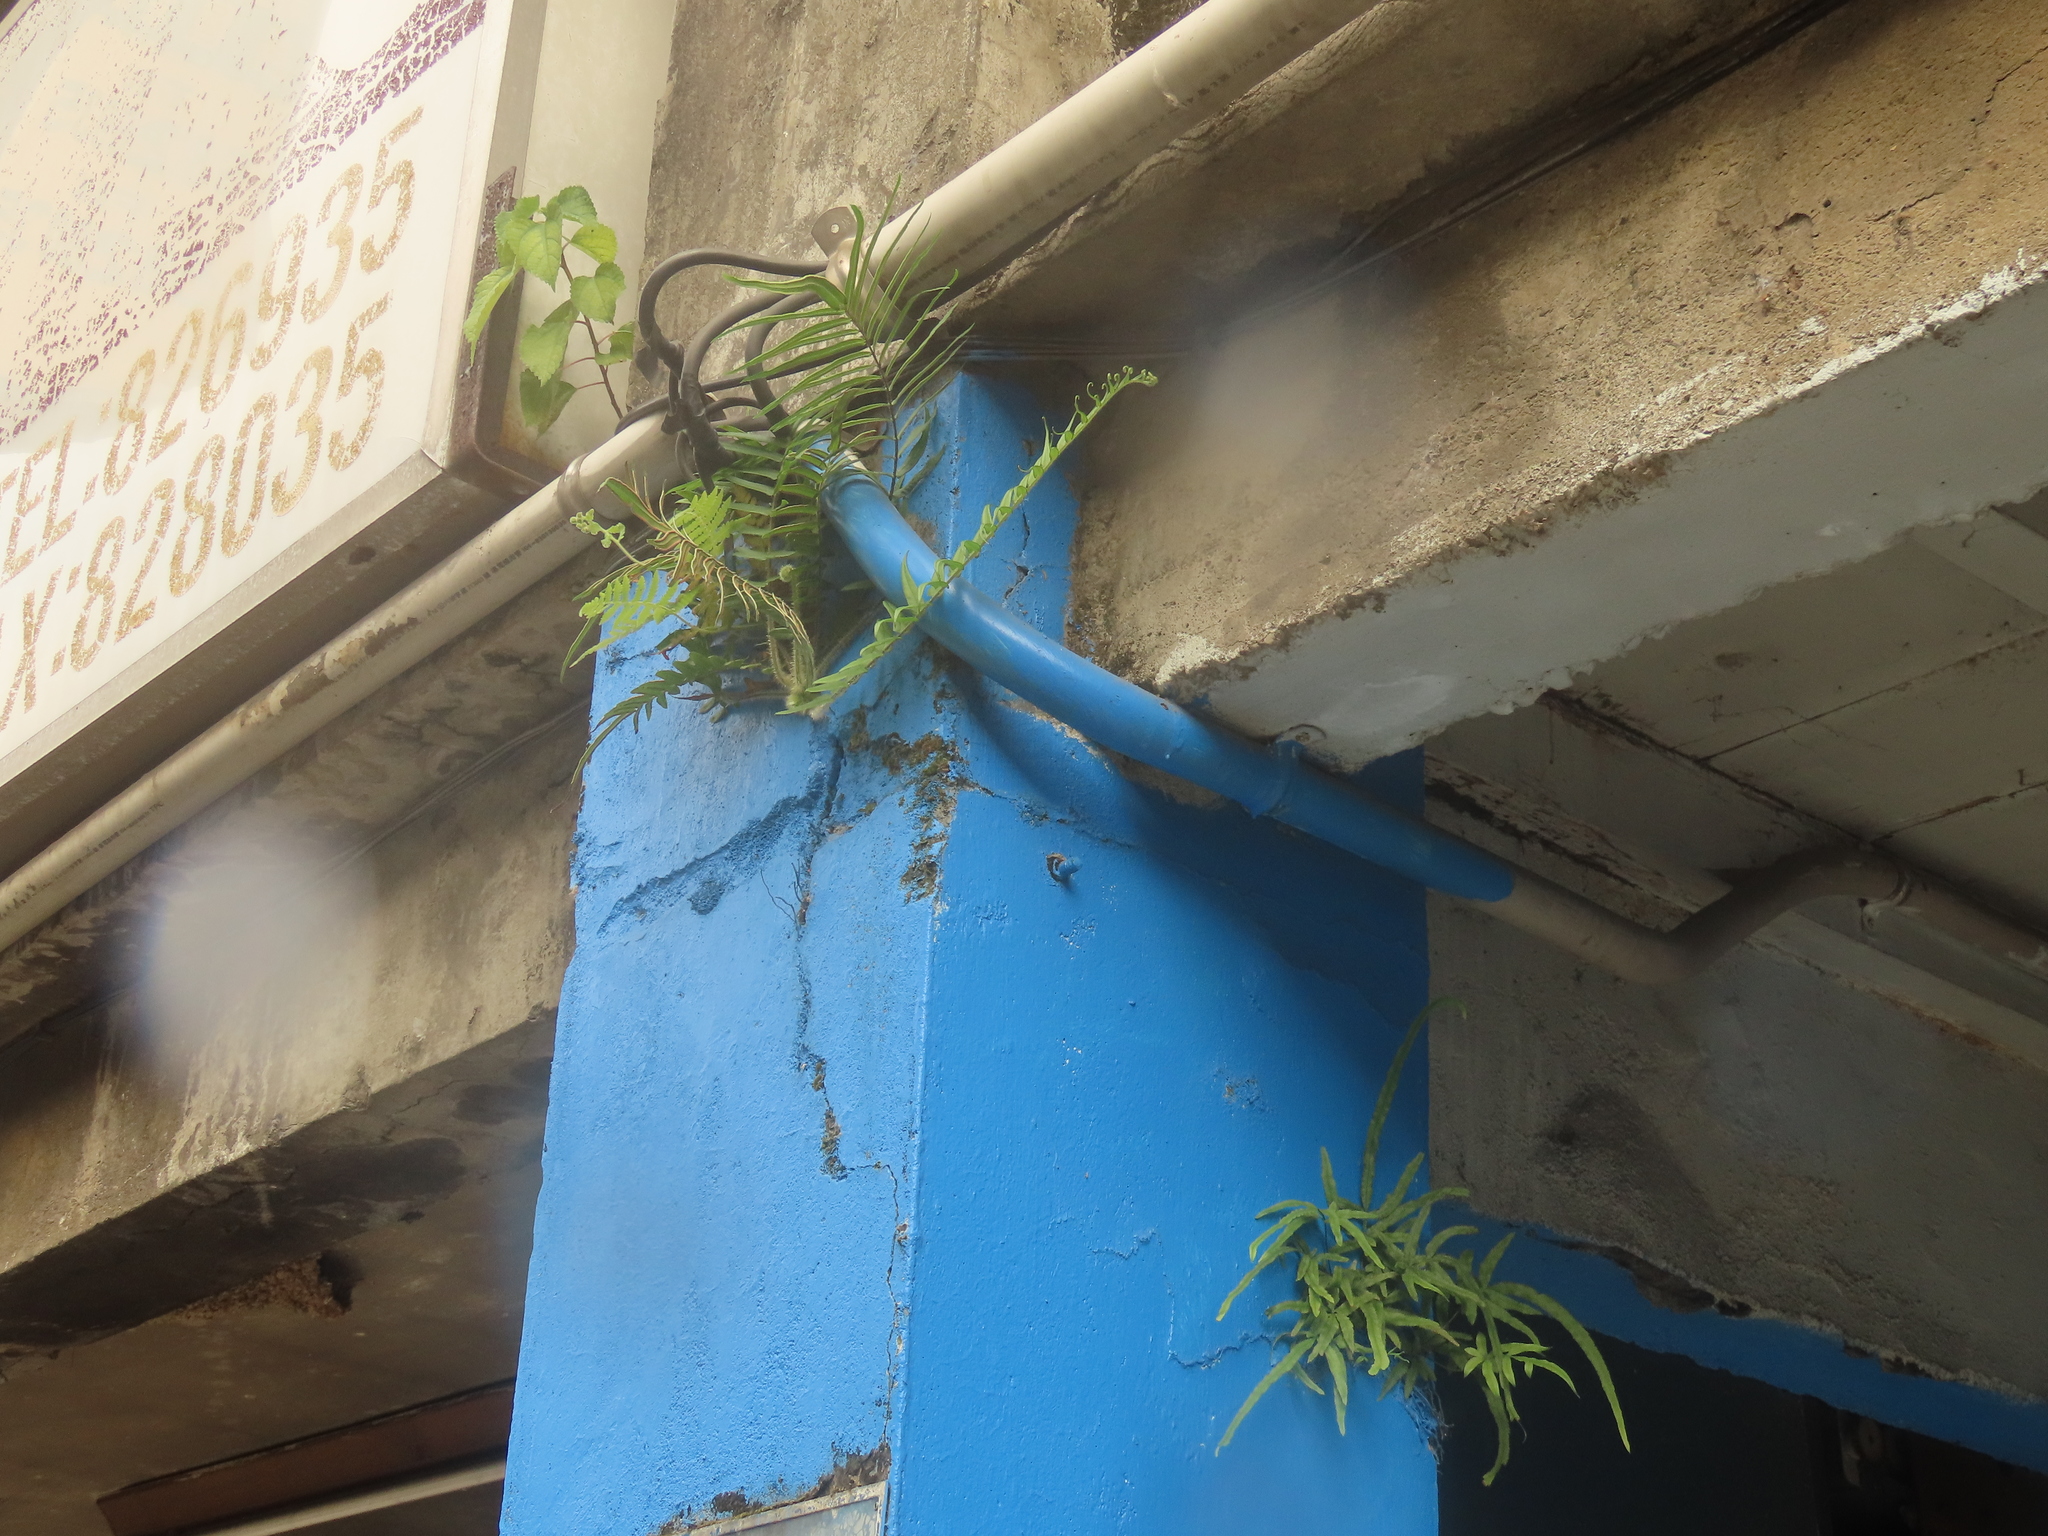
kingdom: Plantae
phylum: Tracheophyta
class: Polypodiopsida
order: Polypodiales
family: Pteridaceae
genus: Pteris
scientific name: Pteris vittata
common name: Ladder brake
